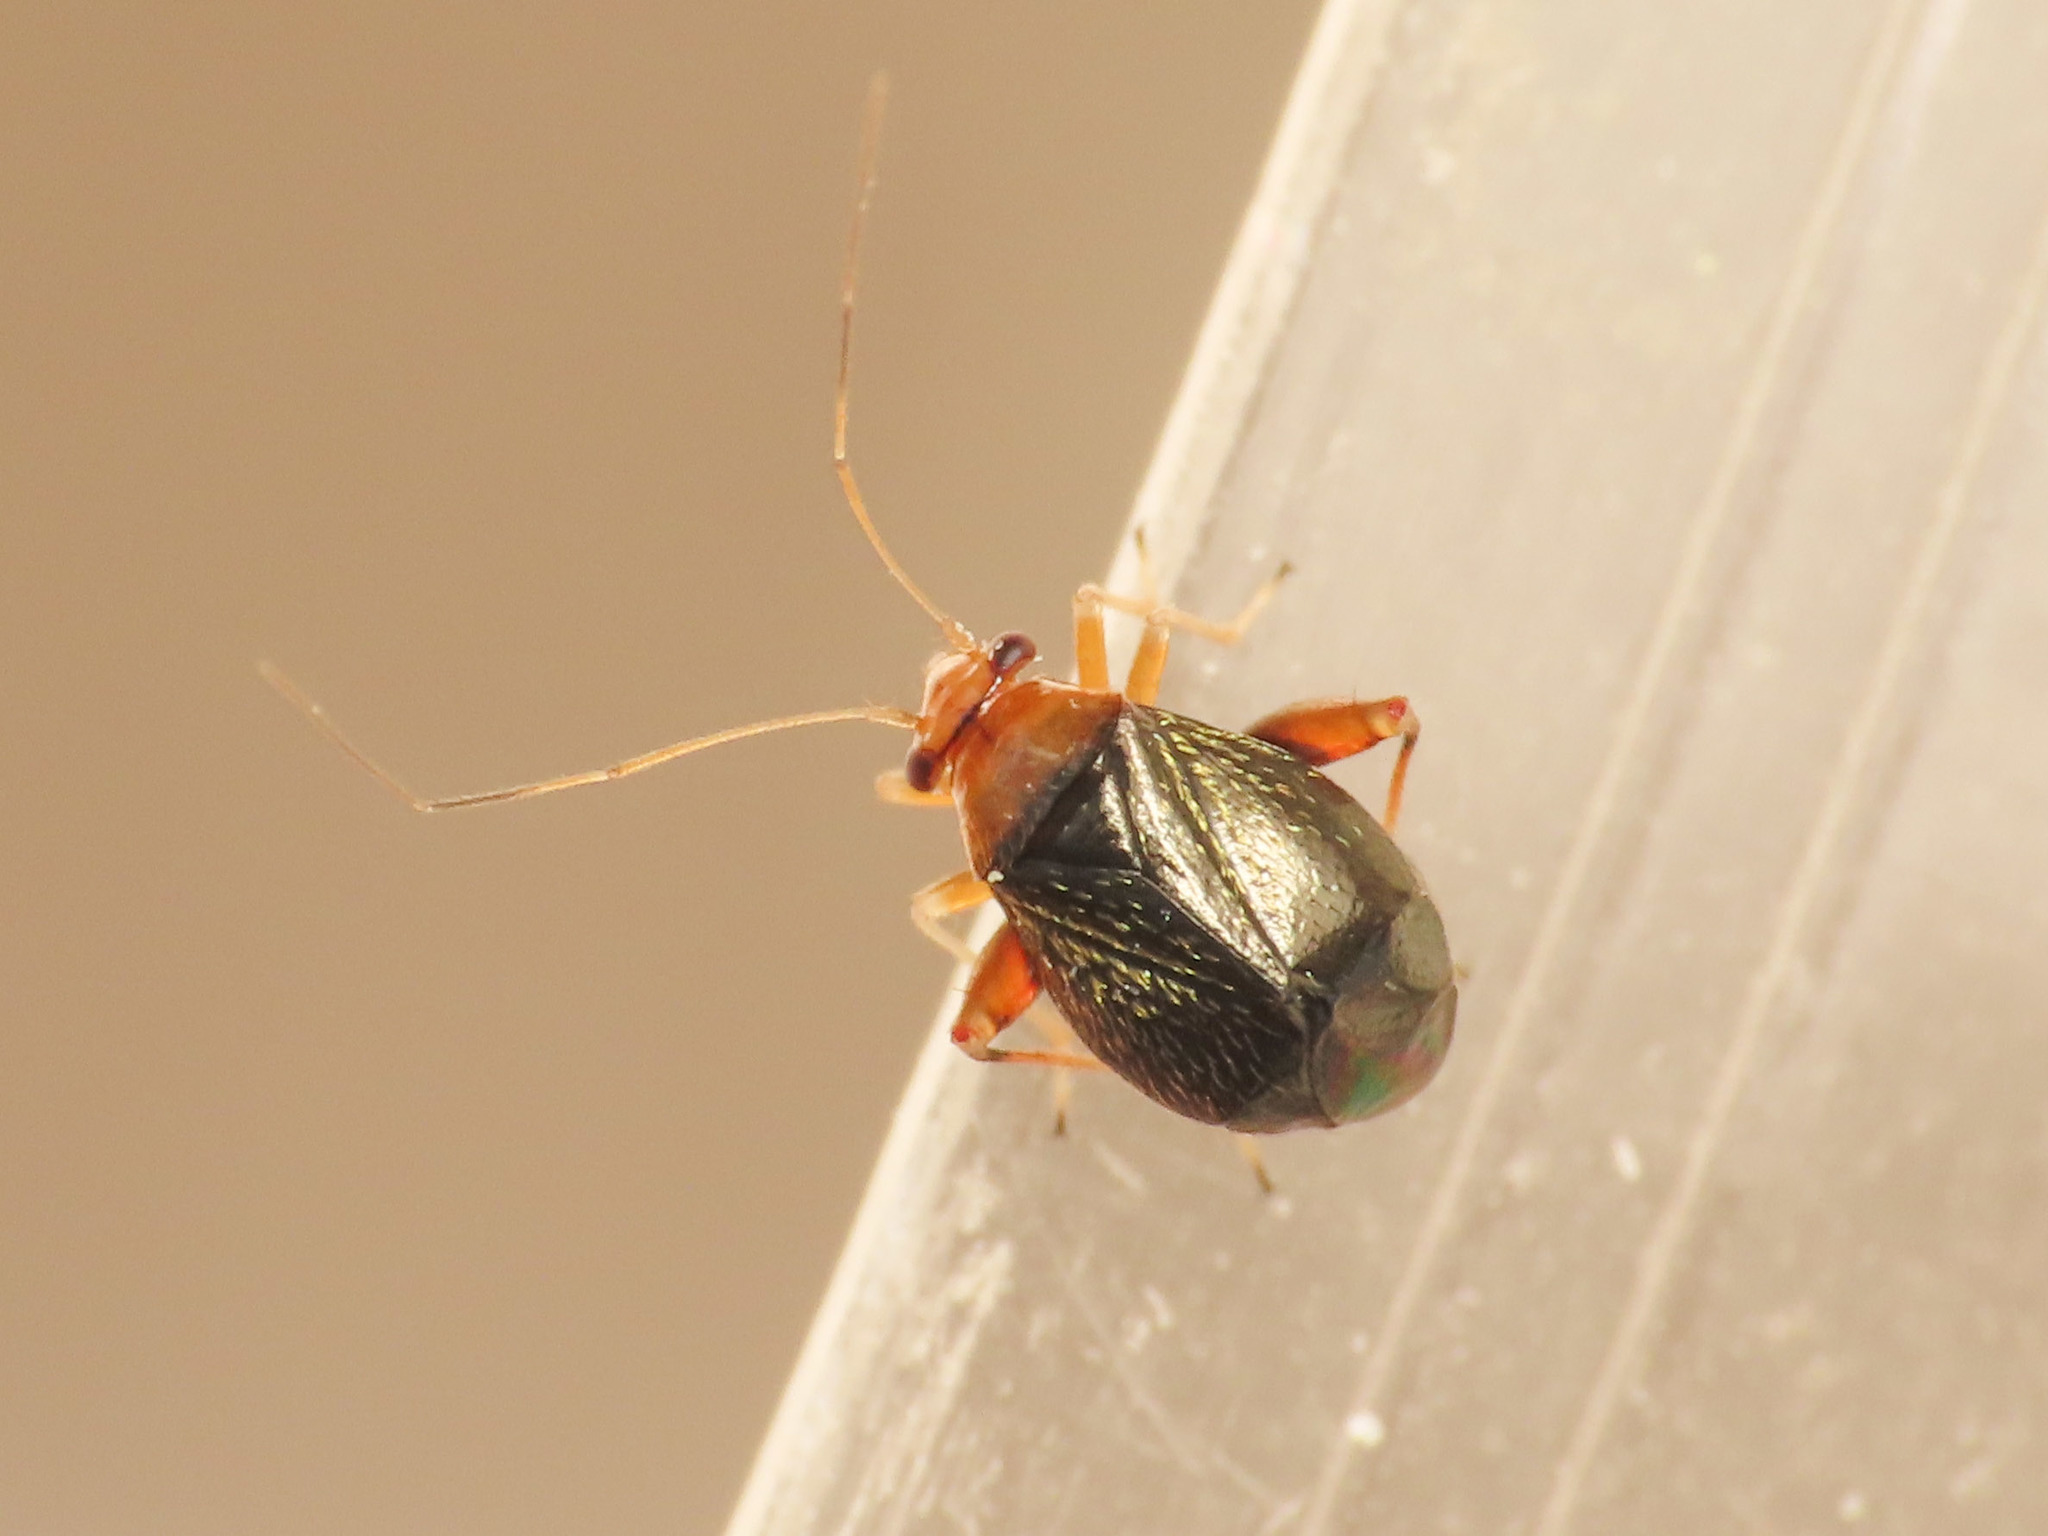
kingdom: Animalia
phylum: Arthropoda
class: Insecta
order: Hemiptera
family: Miridae
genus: Halticus
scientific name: Halticus luteicollis
